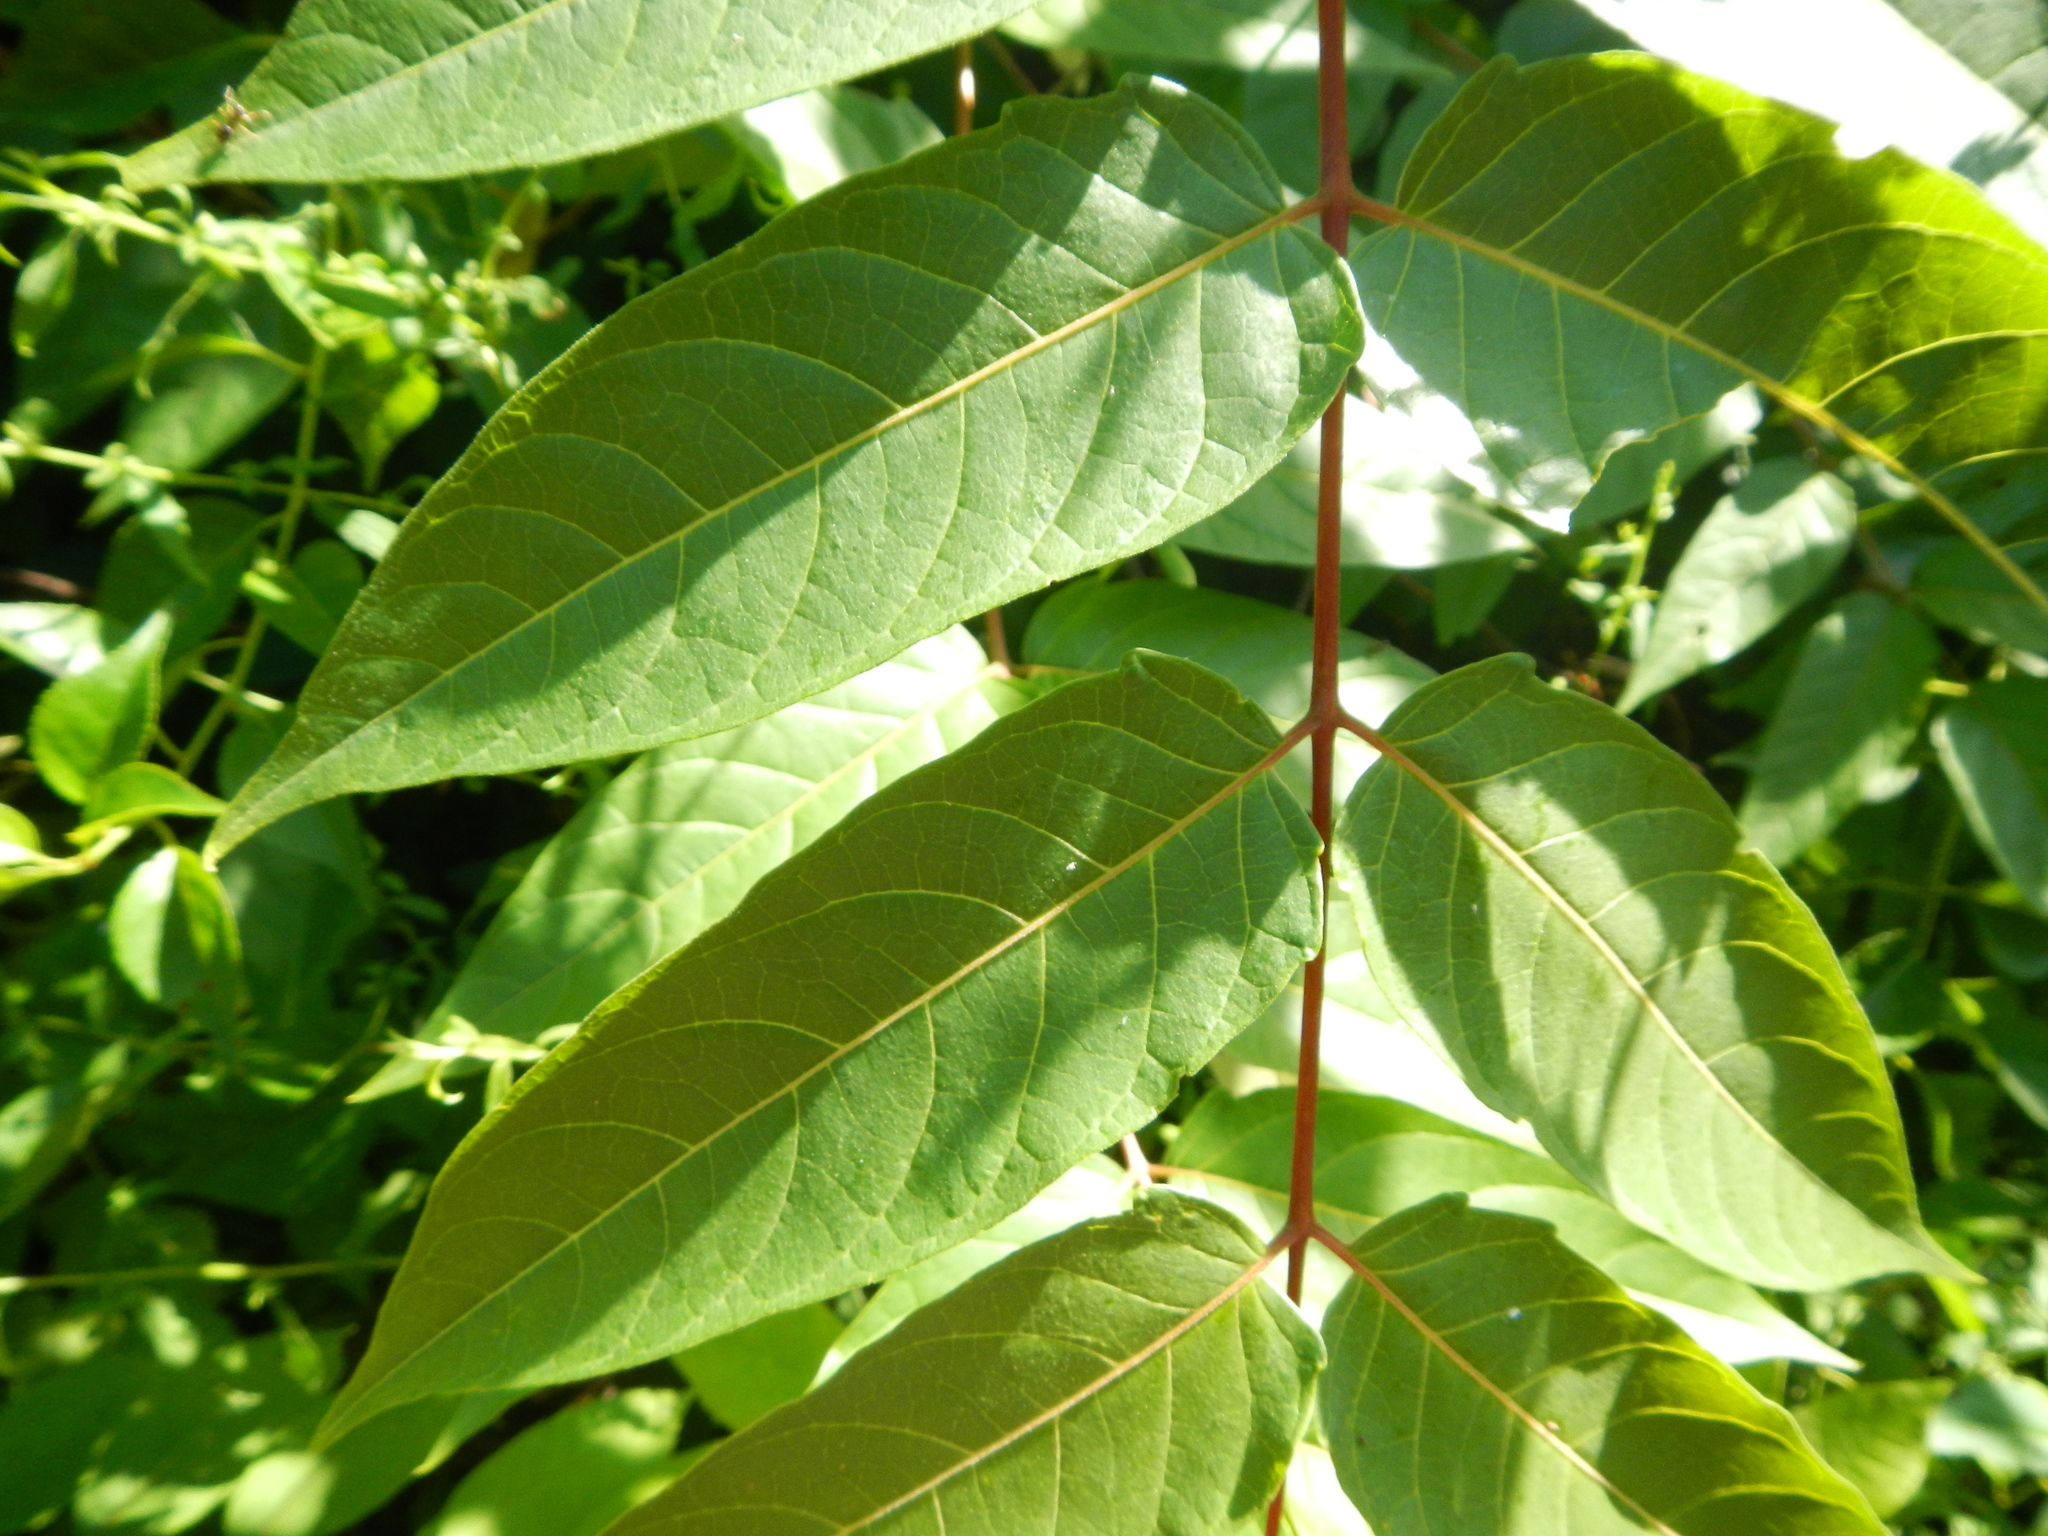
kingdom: Plantae
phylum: Tracheophyta
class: Magnoliopsida
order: Sapindales
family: Simaroubaceae
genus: Ailanthus
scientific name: Ailanthus altissima
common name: Tree-of-heaven
